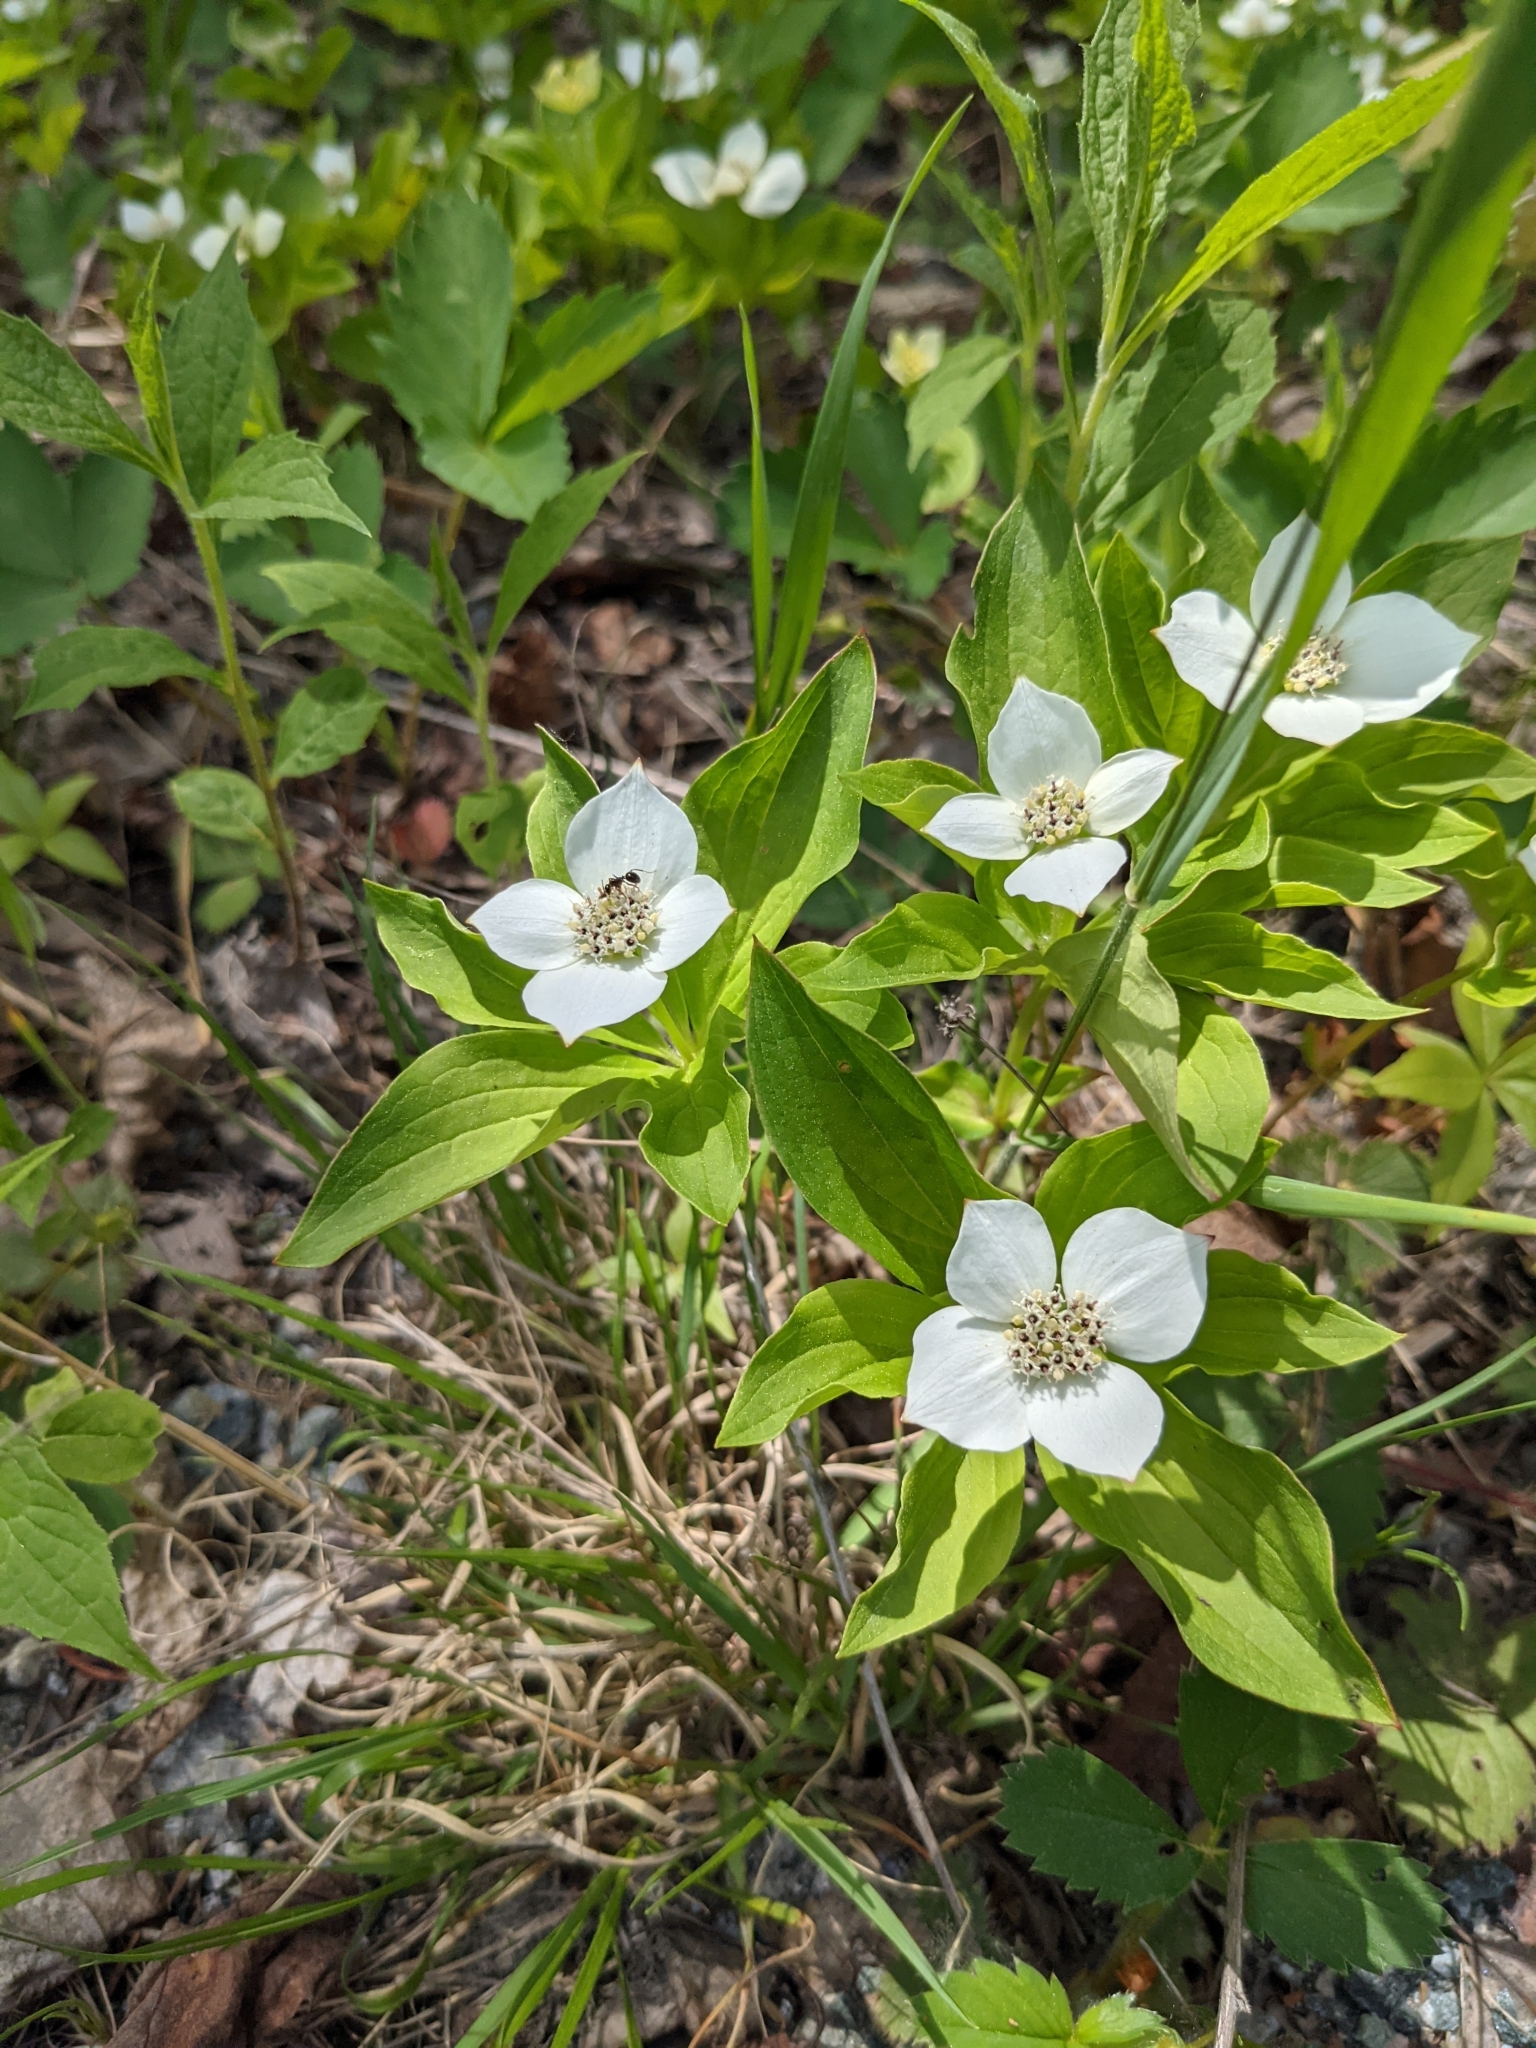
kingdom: Plantae
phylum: Tracheophyta
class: Magnoliopsida
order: Cornales
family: Cornaceae
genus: Cornus
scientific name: Cornus canadensis
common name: Creeping dogwood
